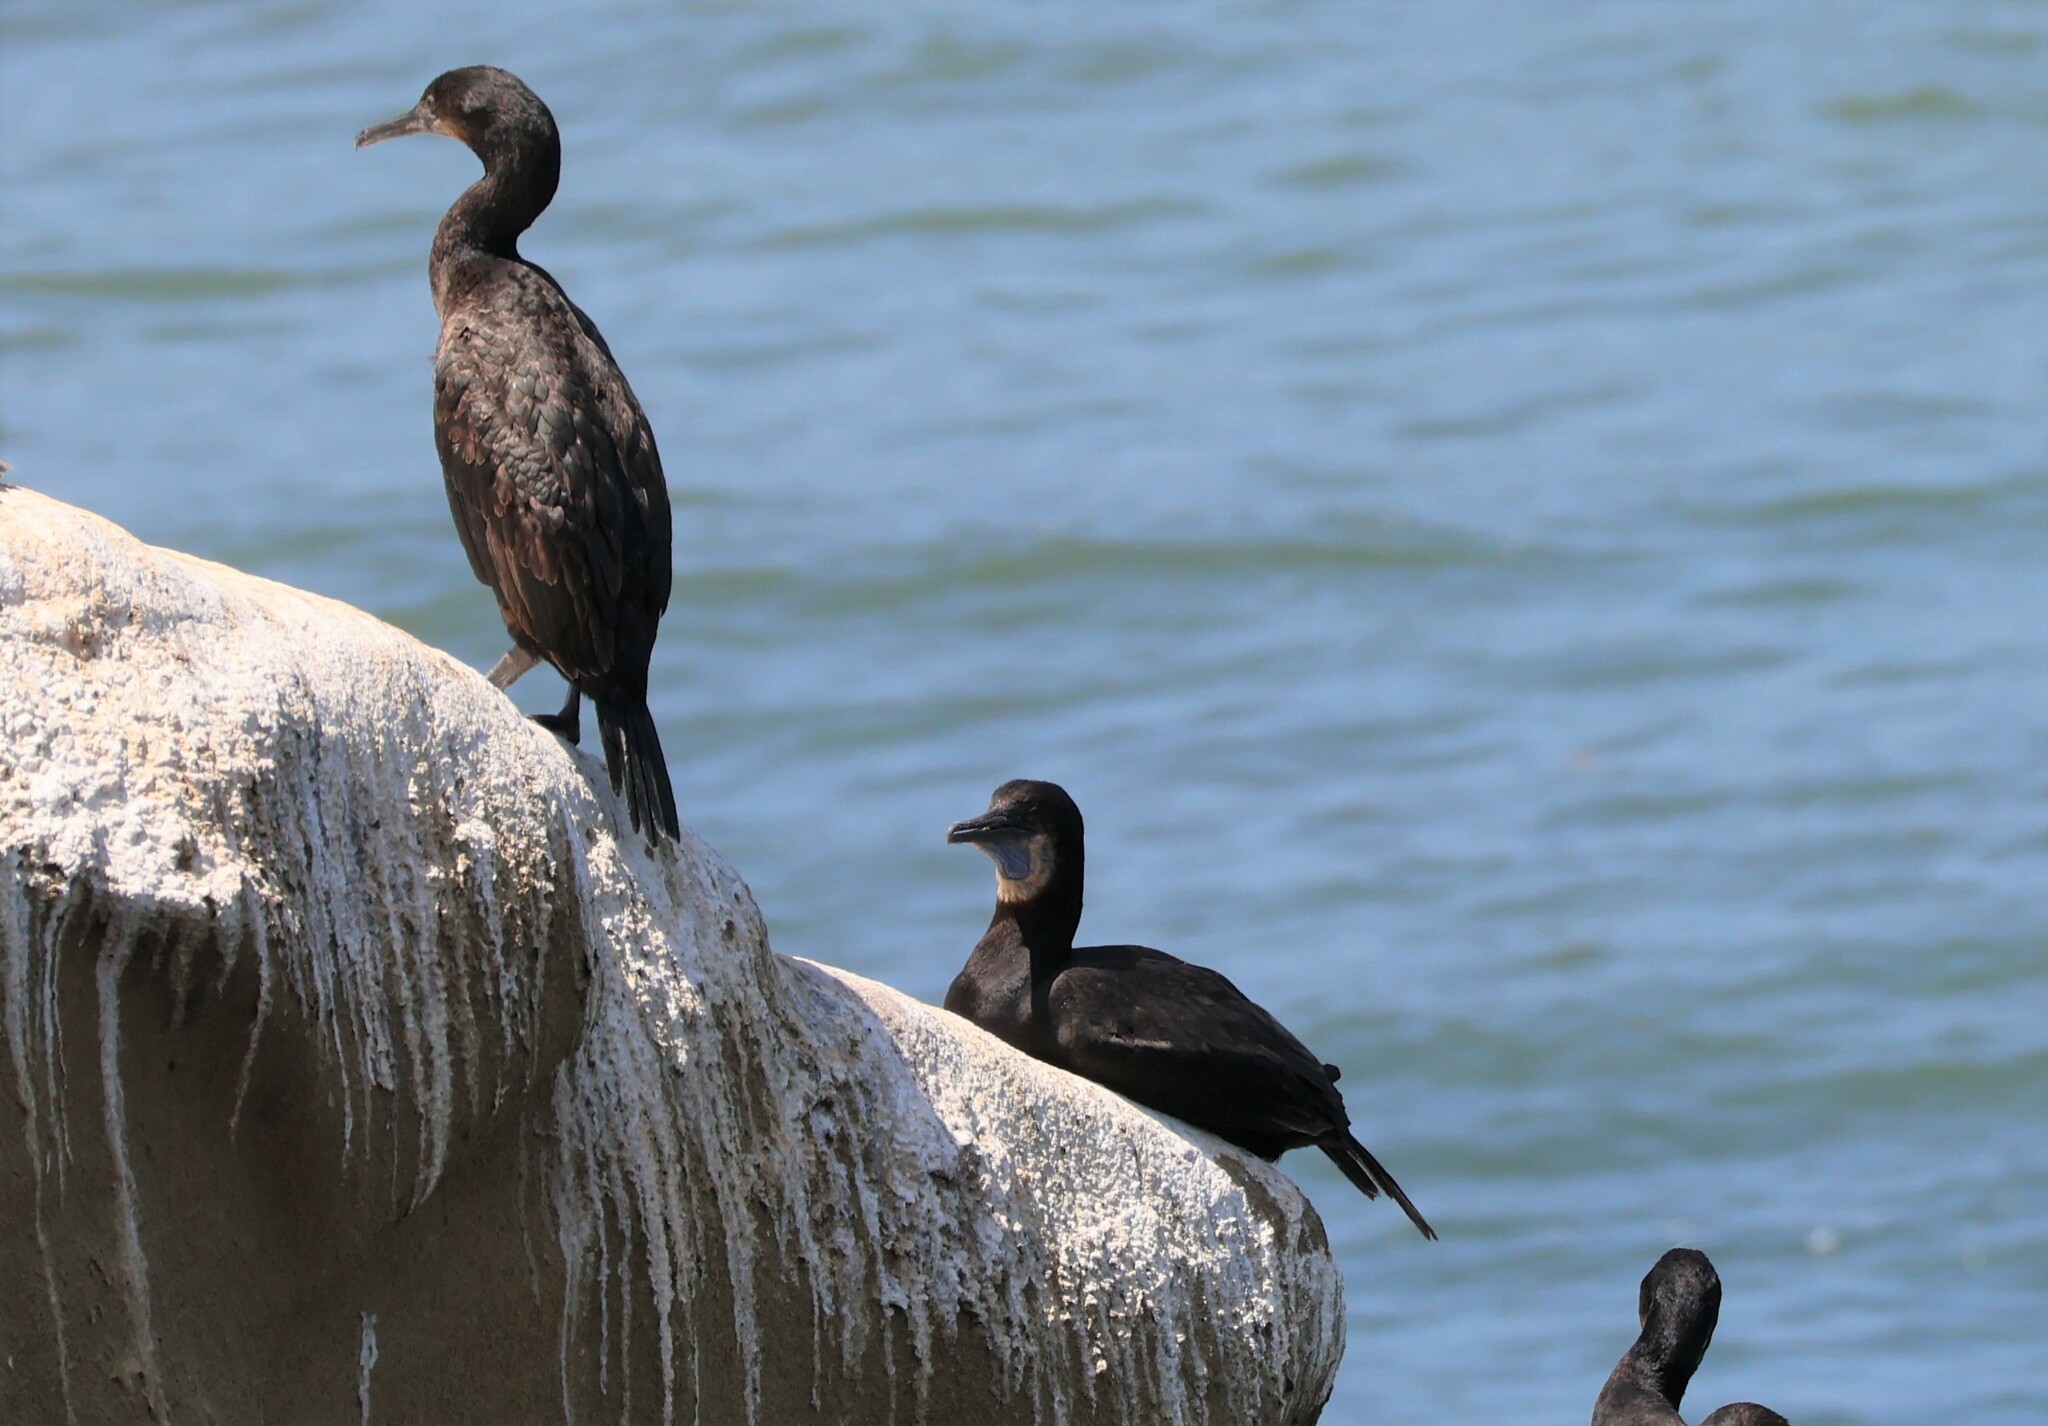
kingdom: Animalia
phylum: Chordata
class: Aves
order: Suliformes
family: Phalacrocoracidae
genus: Urile
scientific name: Urile penicillatus
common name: Brandt's cormorant
